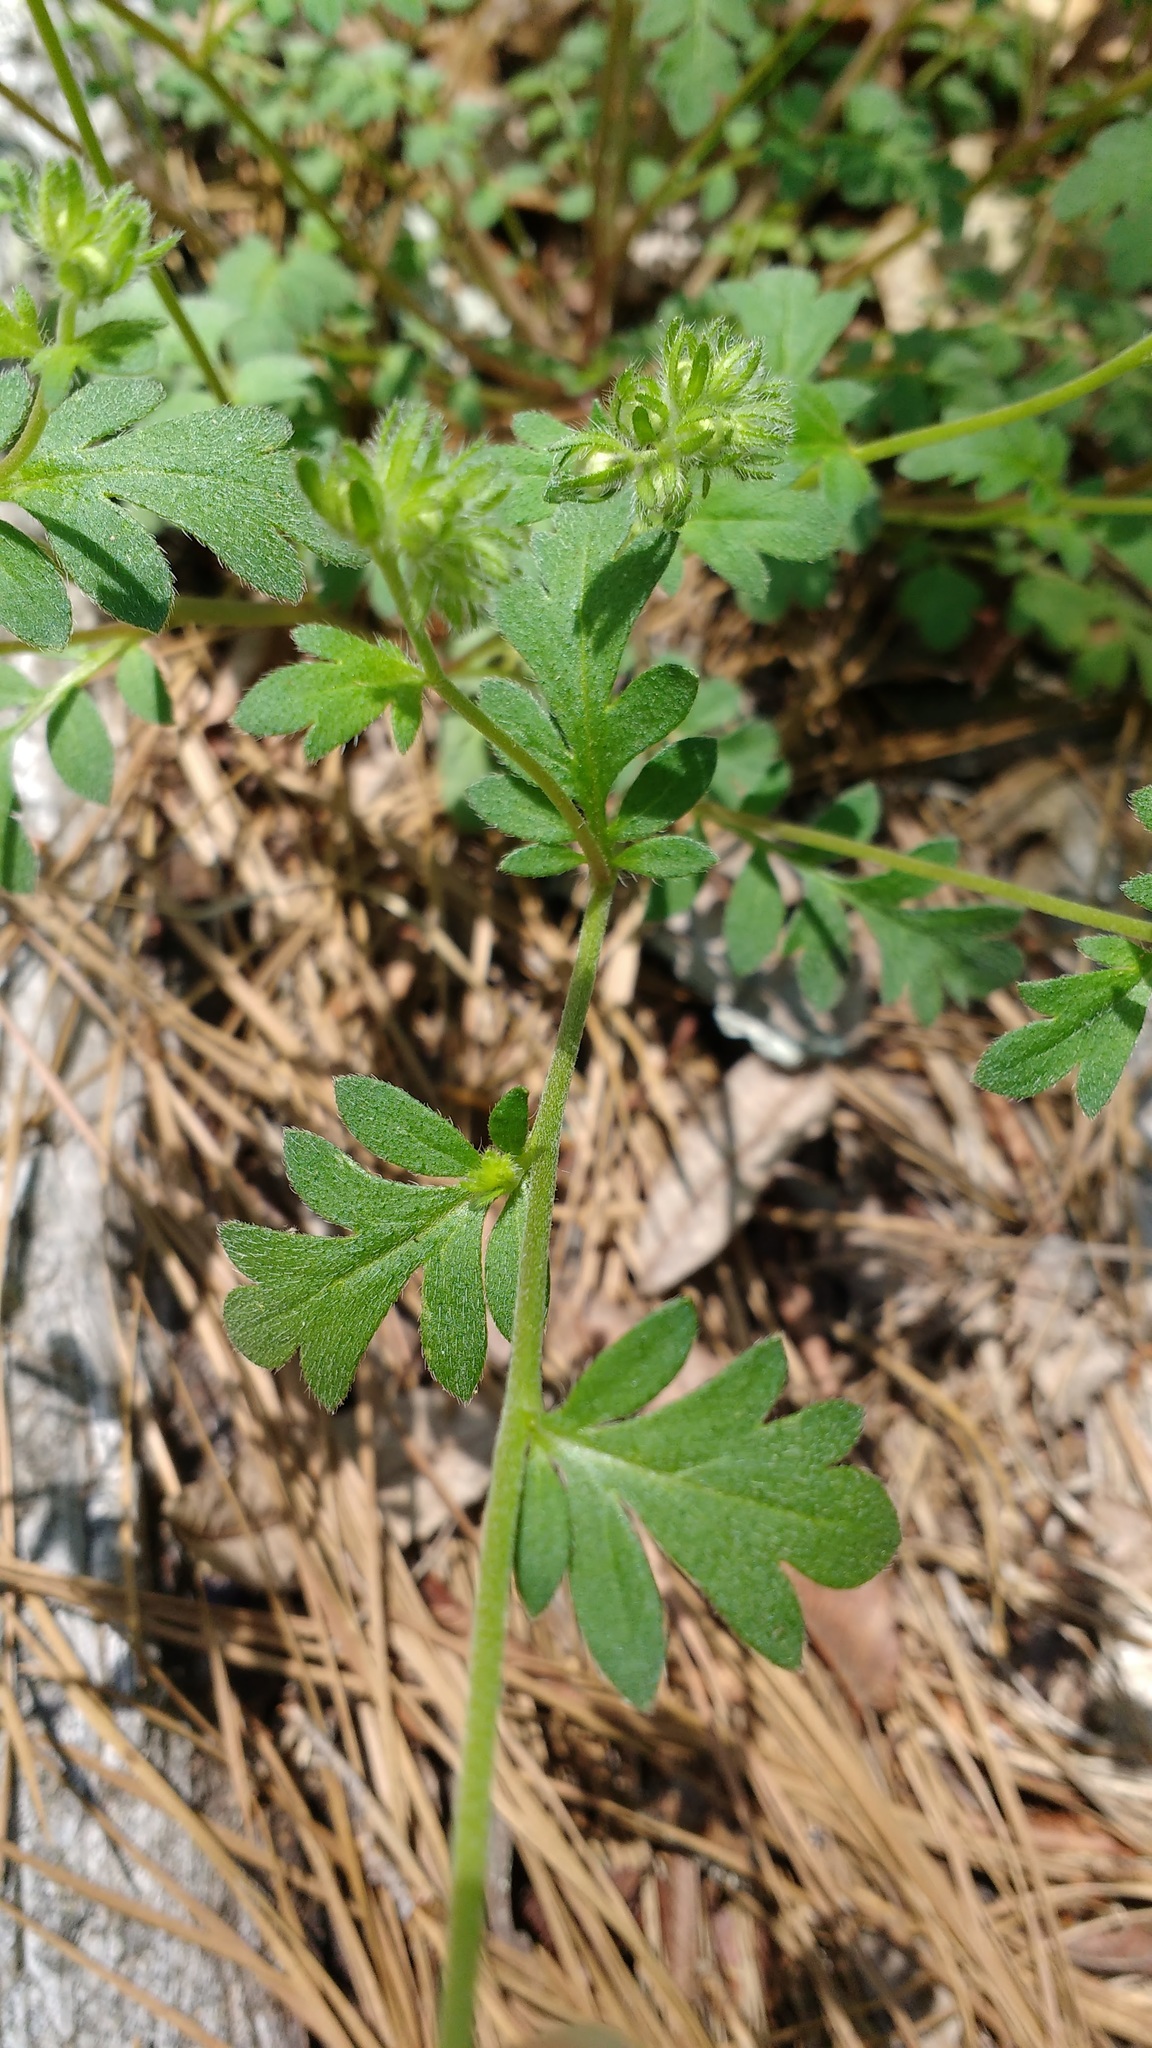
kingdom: Plantae
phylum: Tracheophyta
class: Magnoliopsida
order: Boraginales
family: Hydrophyllaceae
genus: Phacelia
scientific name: Phacelia maculata
